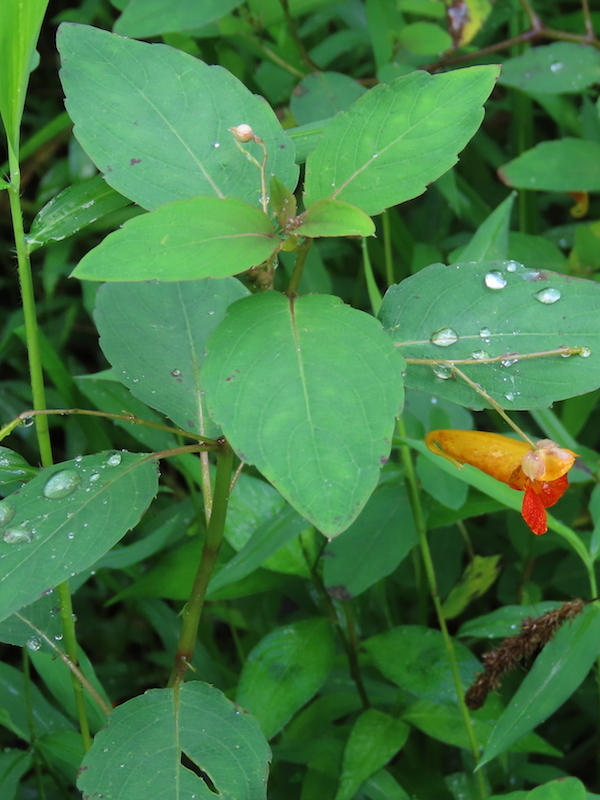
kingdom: Plantae
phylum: Tracheophyta
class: Magnoliopsida
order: Ericales
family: Balsaminaceae
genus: Impatiens
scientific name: Impatiens capensis
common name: Orange balsam
